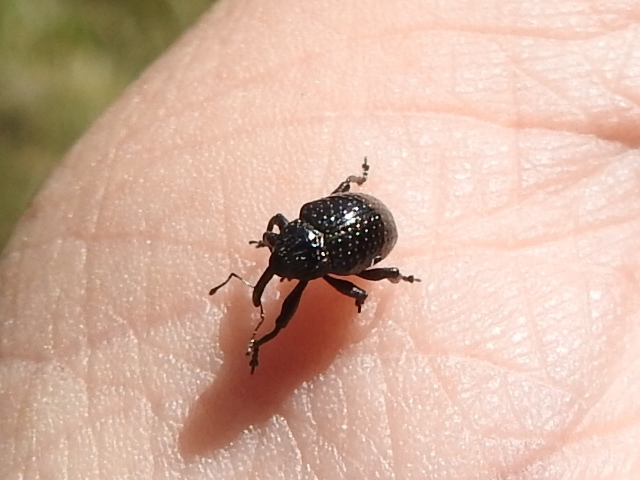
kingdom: Animalia
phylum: Arthropoda
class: Insecta
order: Coleoptera
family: Curculionidae
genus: Chalcodermus
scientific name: Chalcodermus inaequicollis
